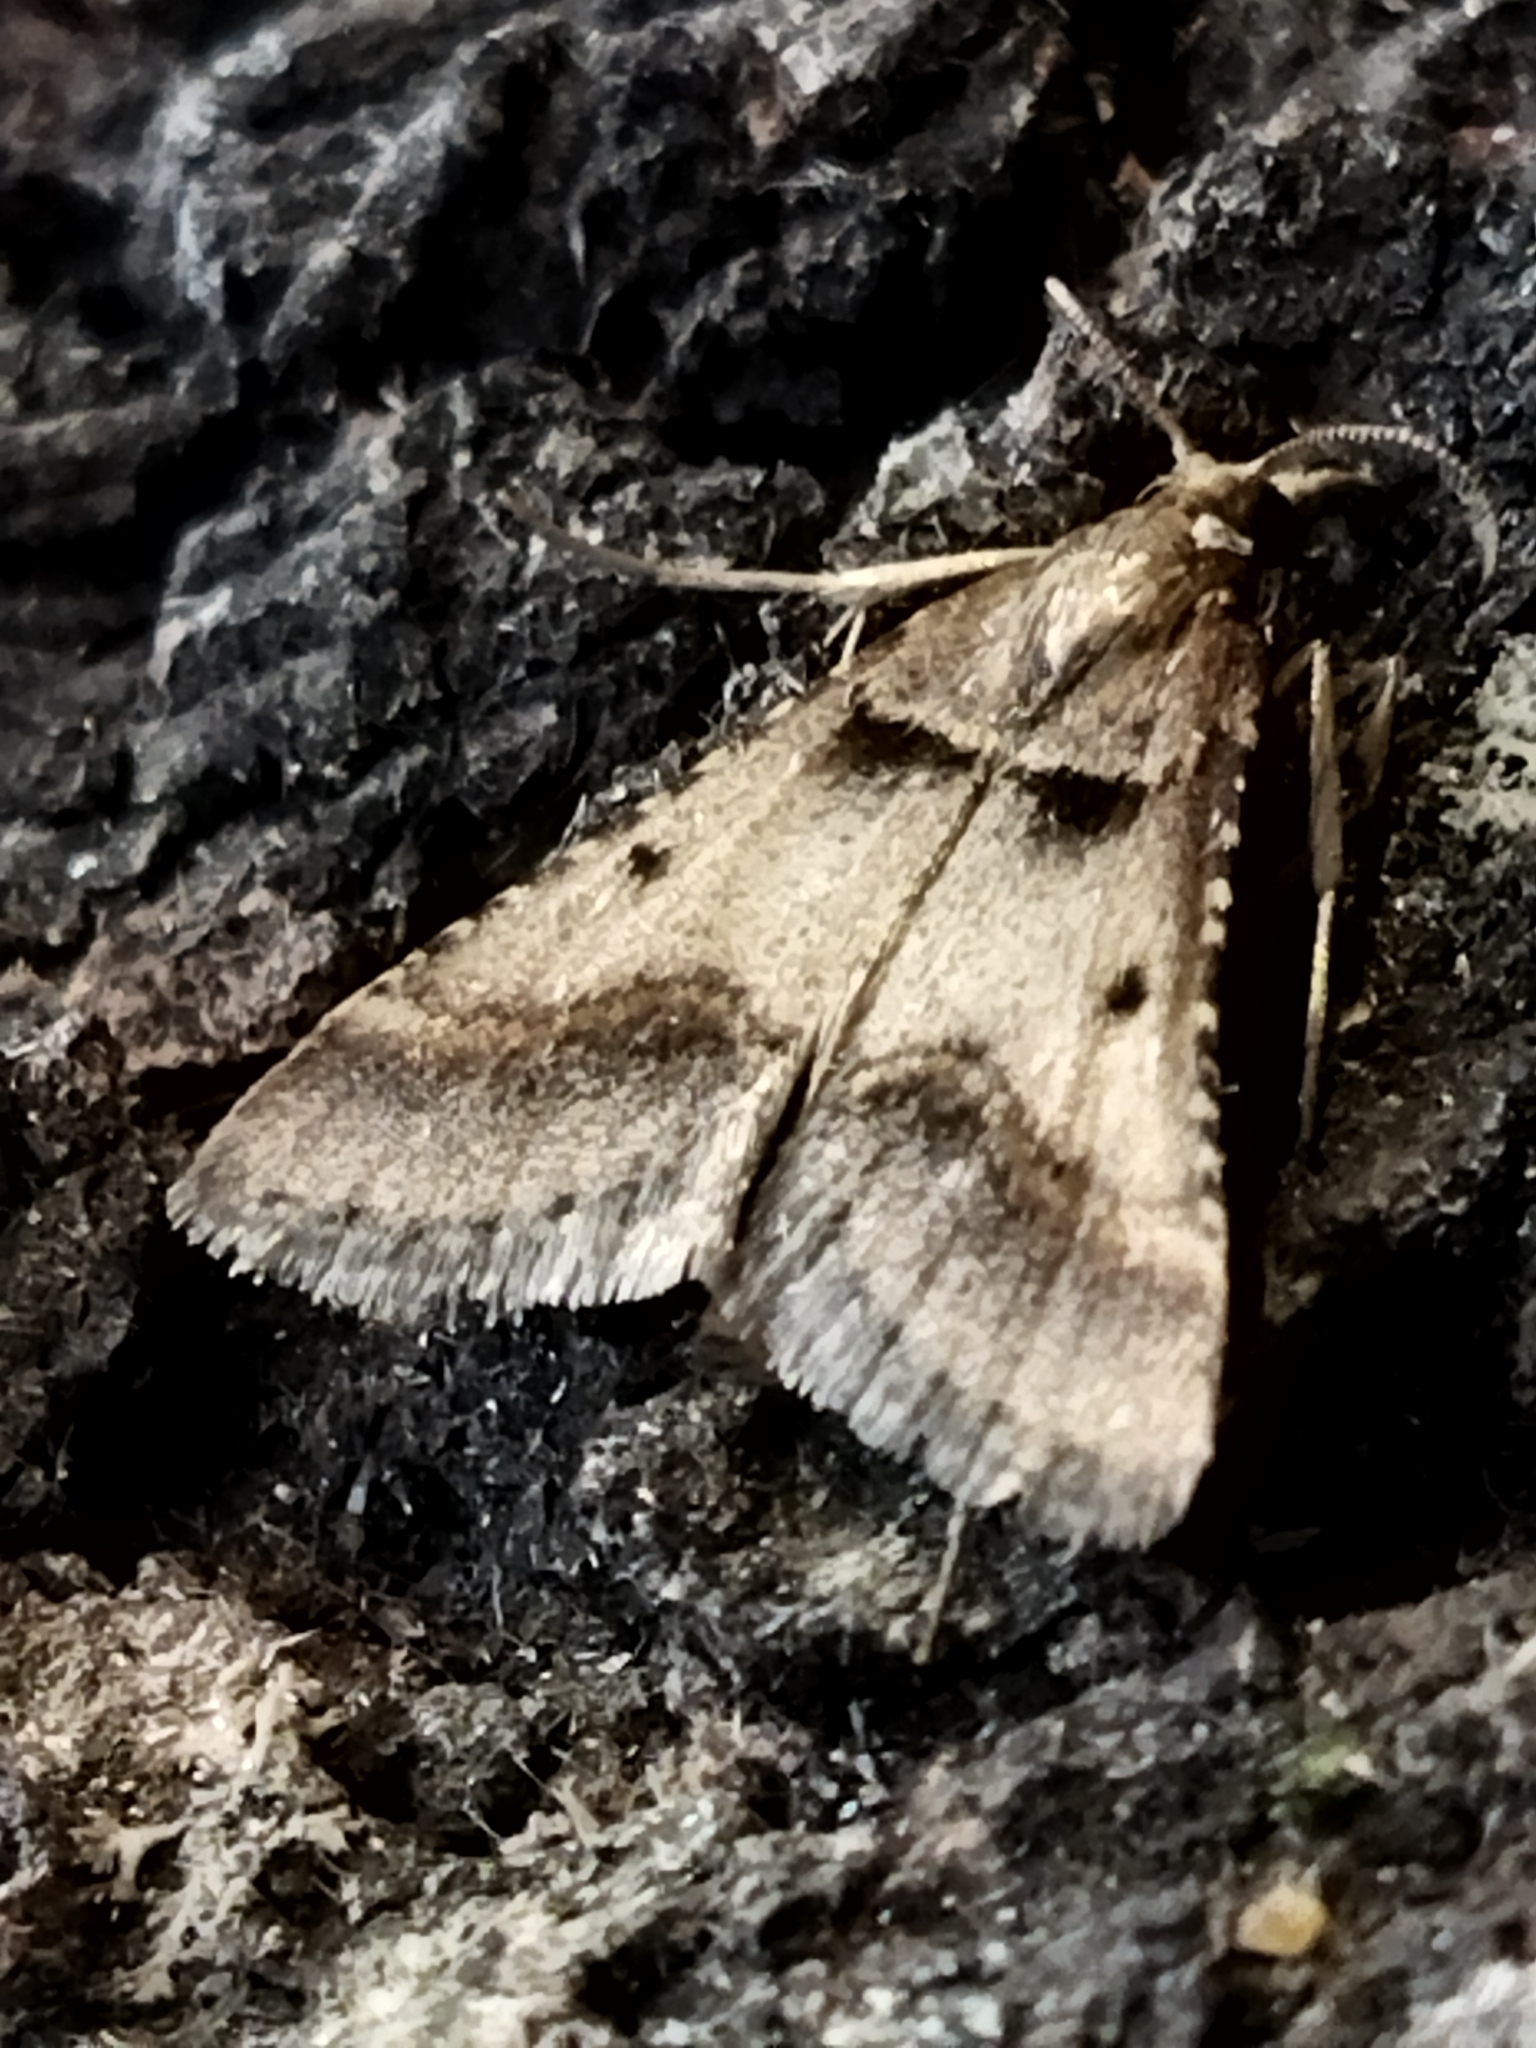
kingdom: Animalia
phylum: Arthropoda
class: Insecta
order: Lepidoptera
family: Pyralidae
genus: Stemmatophora
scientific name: Stemmatophora brunnealis
